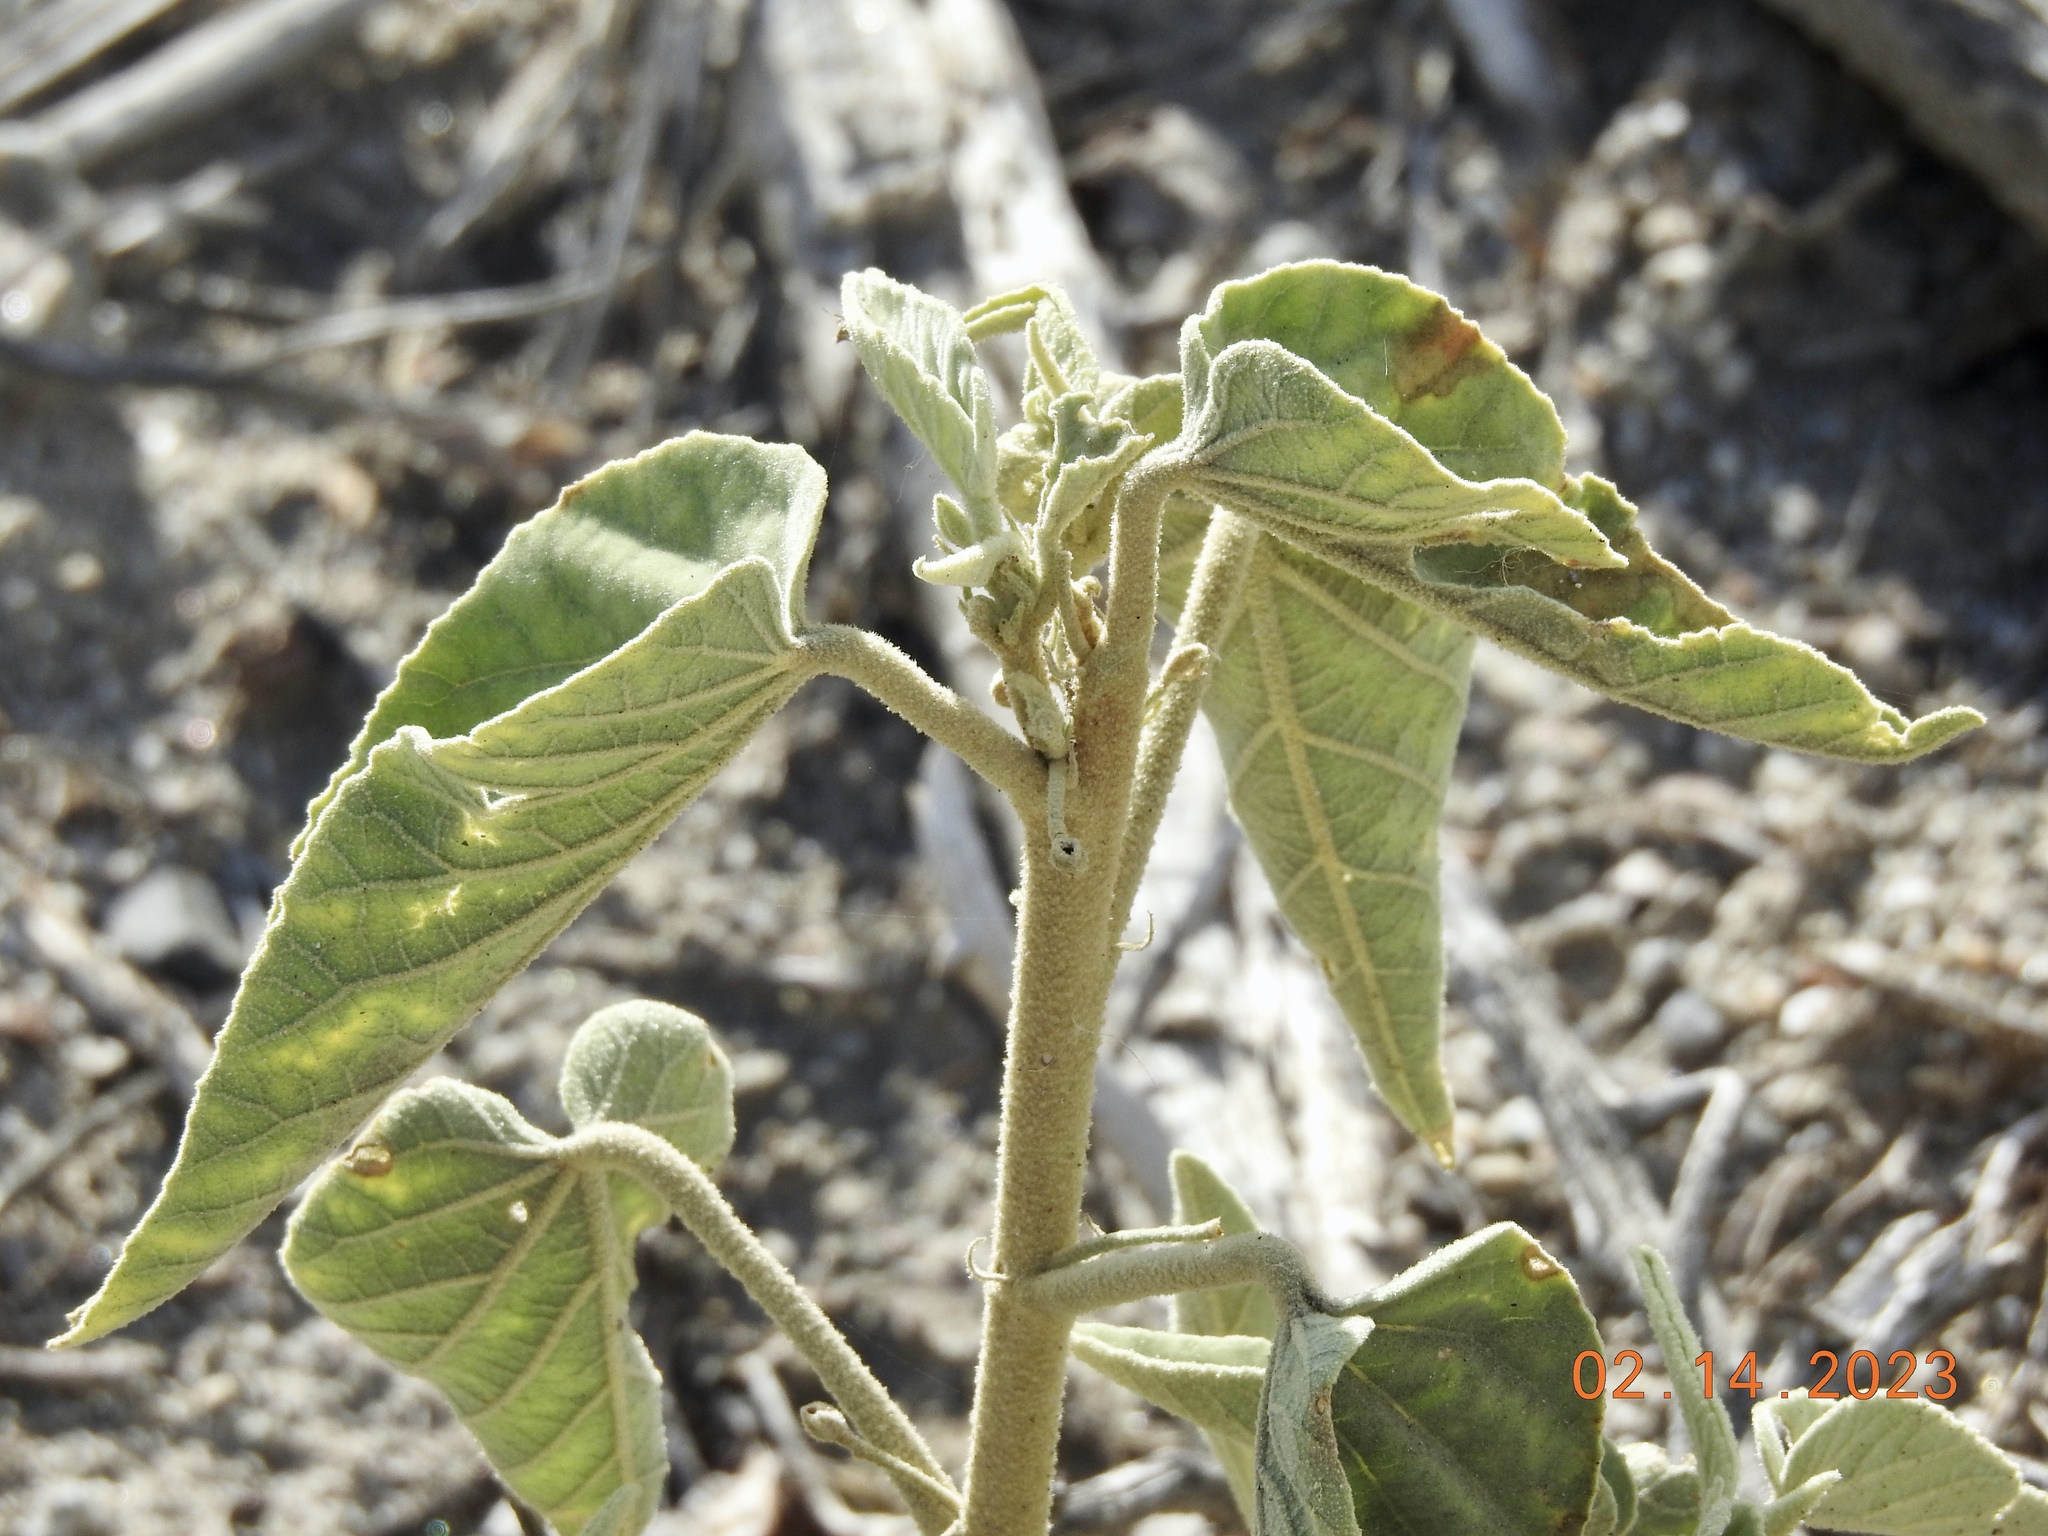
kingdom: Plantae
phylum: Tracheophyta
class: Magnoliopsida
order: Malvales
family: Malvaceae
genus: Horsfordia
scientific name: Horsfordia newberryi
